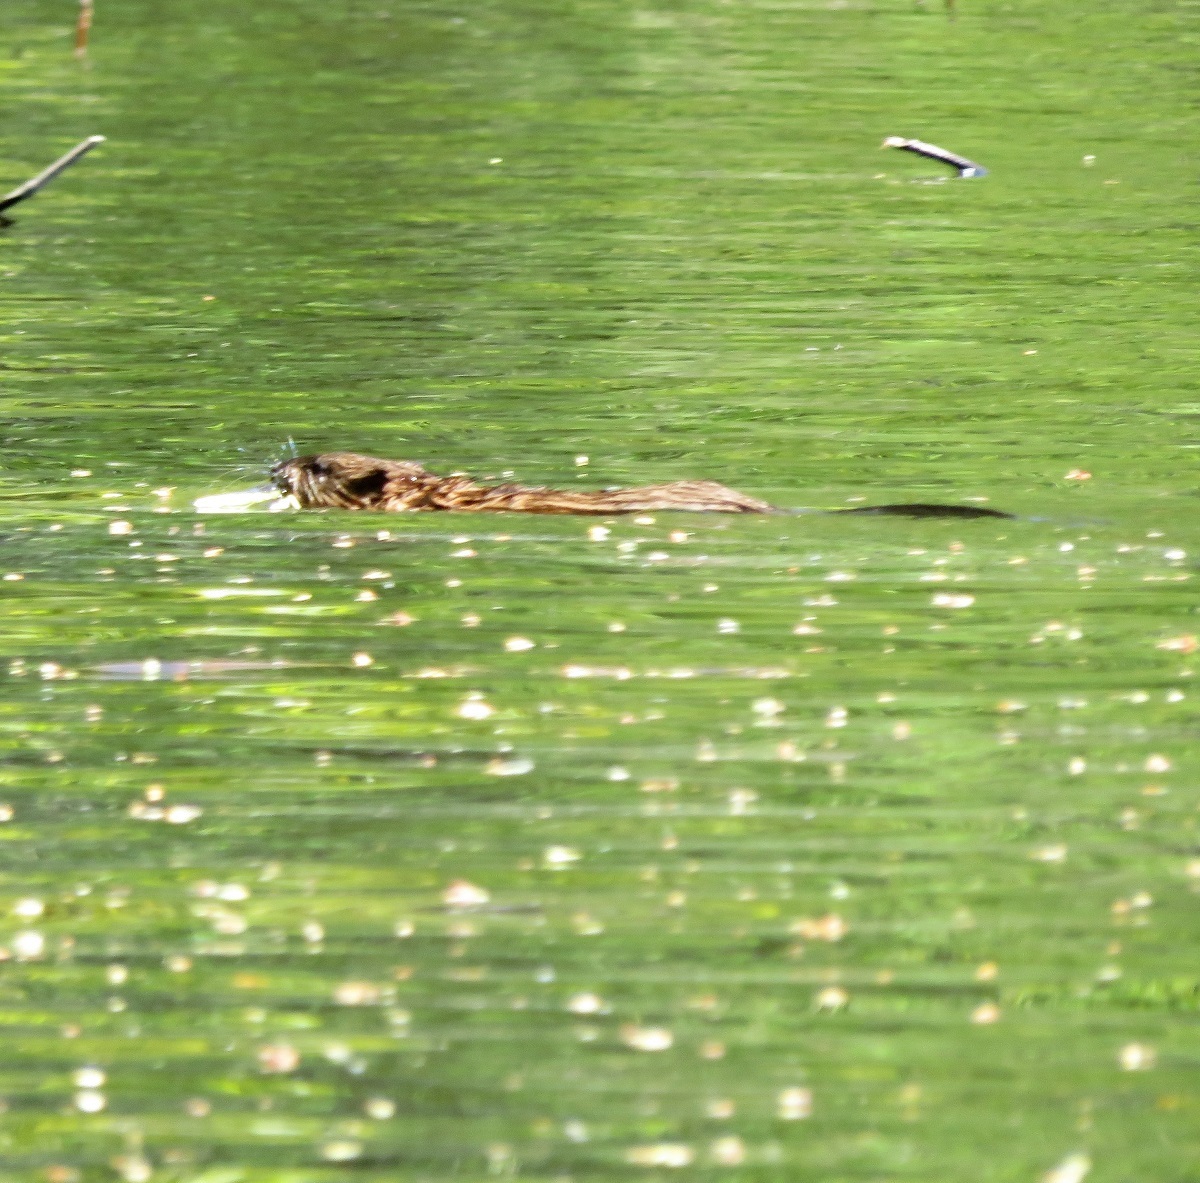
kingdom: Animalia
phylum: Chordata
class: Mammalia
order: Rodentia
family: Cricetidae
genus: Ondatra
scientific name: Ondatra zibethicus
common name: Muskrat
